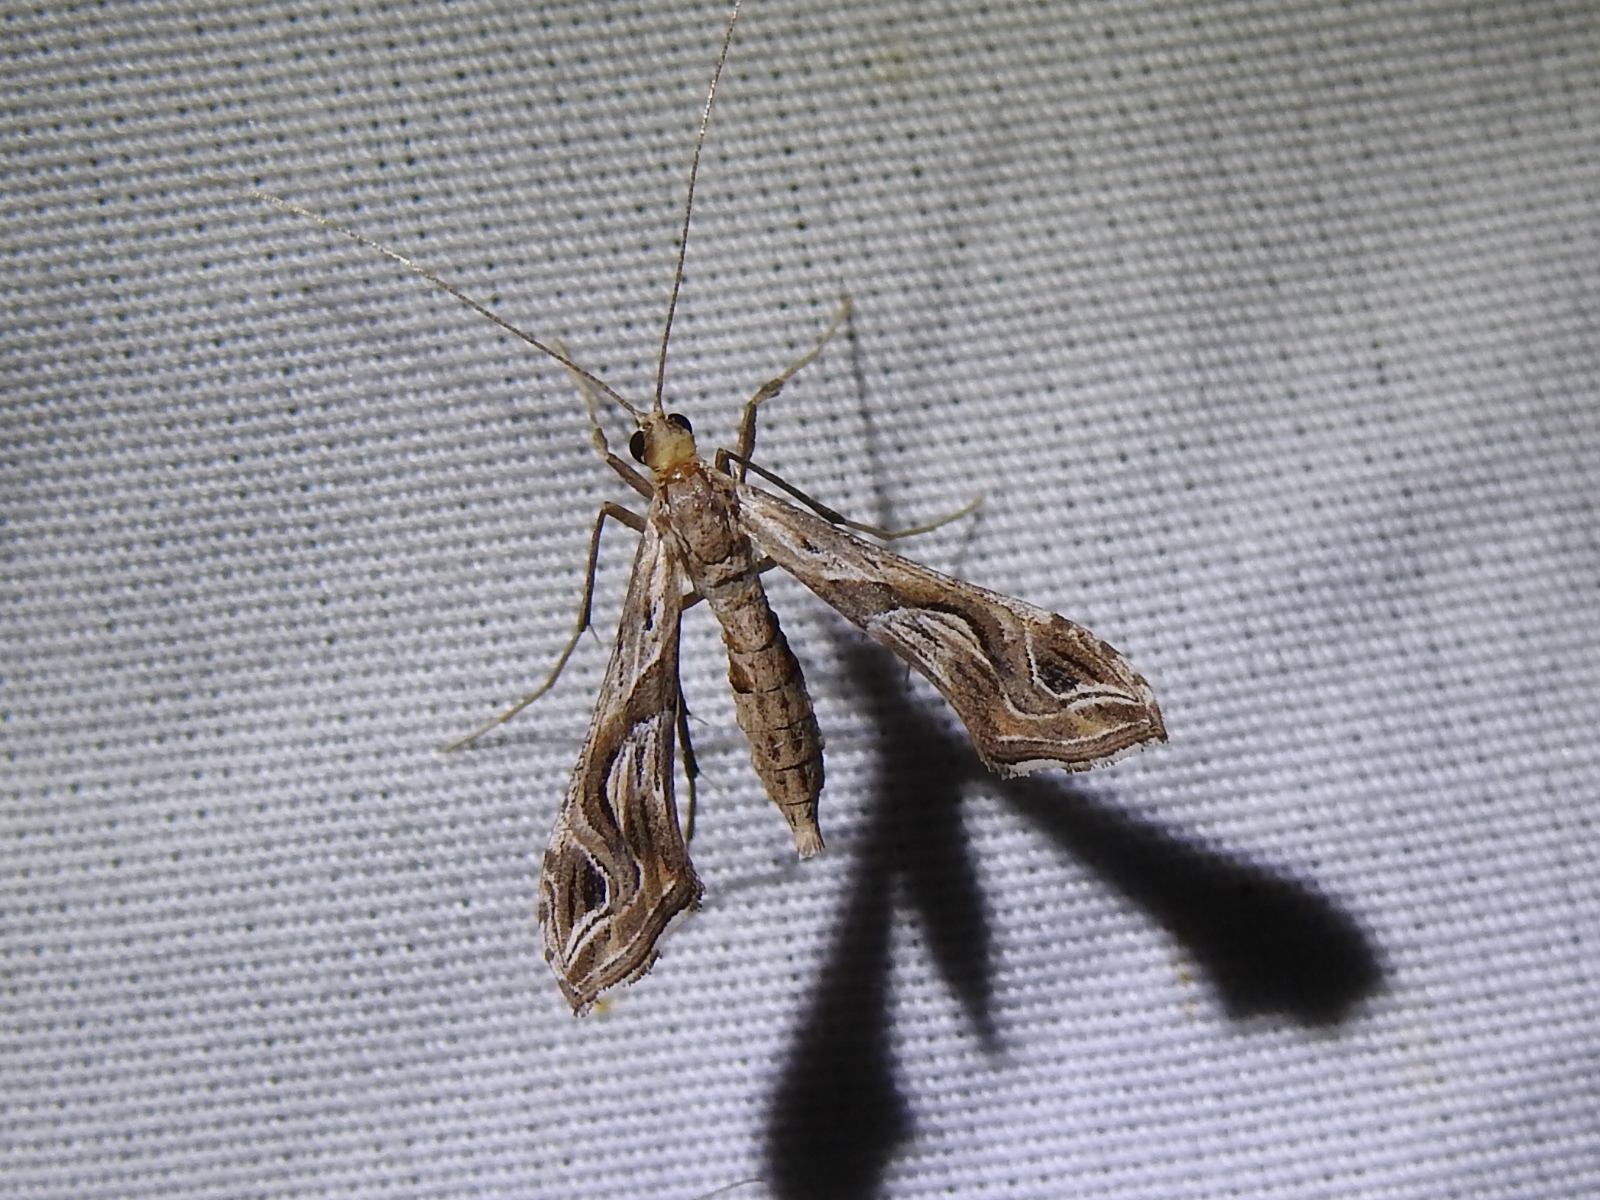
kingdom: Animalia
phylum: Arthropoda
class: Insecta
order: Lepidoptera
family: Crambidae
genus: Lineodes
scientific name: Lineodes integra
